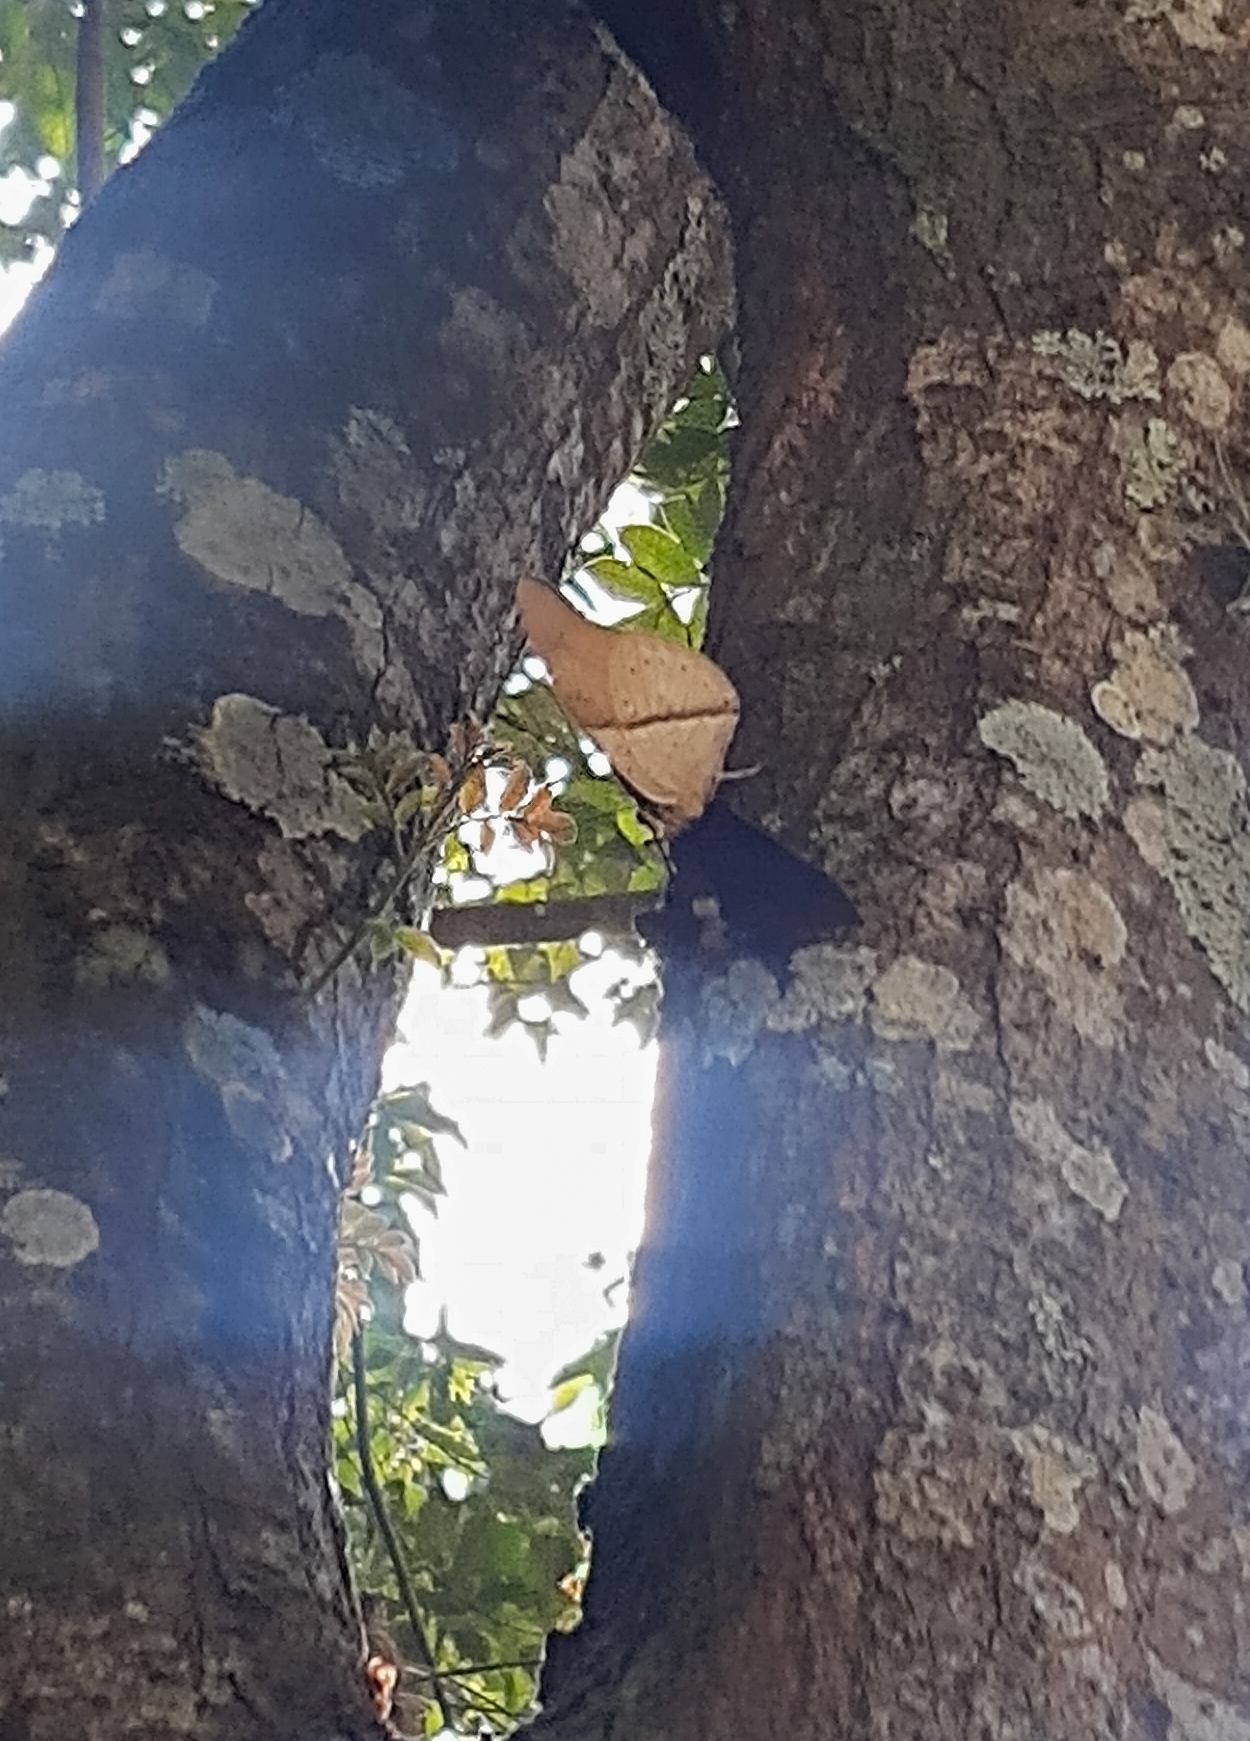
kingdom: Animalia
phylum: Arthropoda
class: Insecta
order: Lepidoptera
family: Nymphalidae
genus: Prepona
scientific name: Prepona meander
